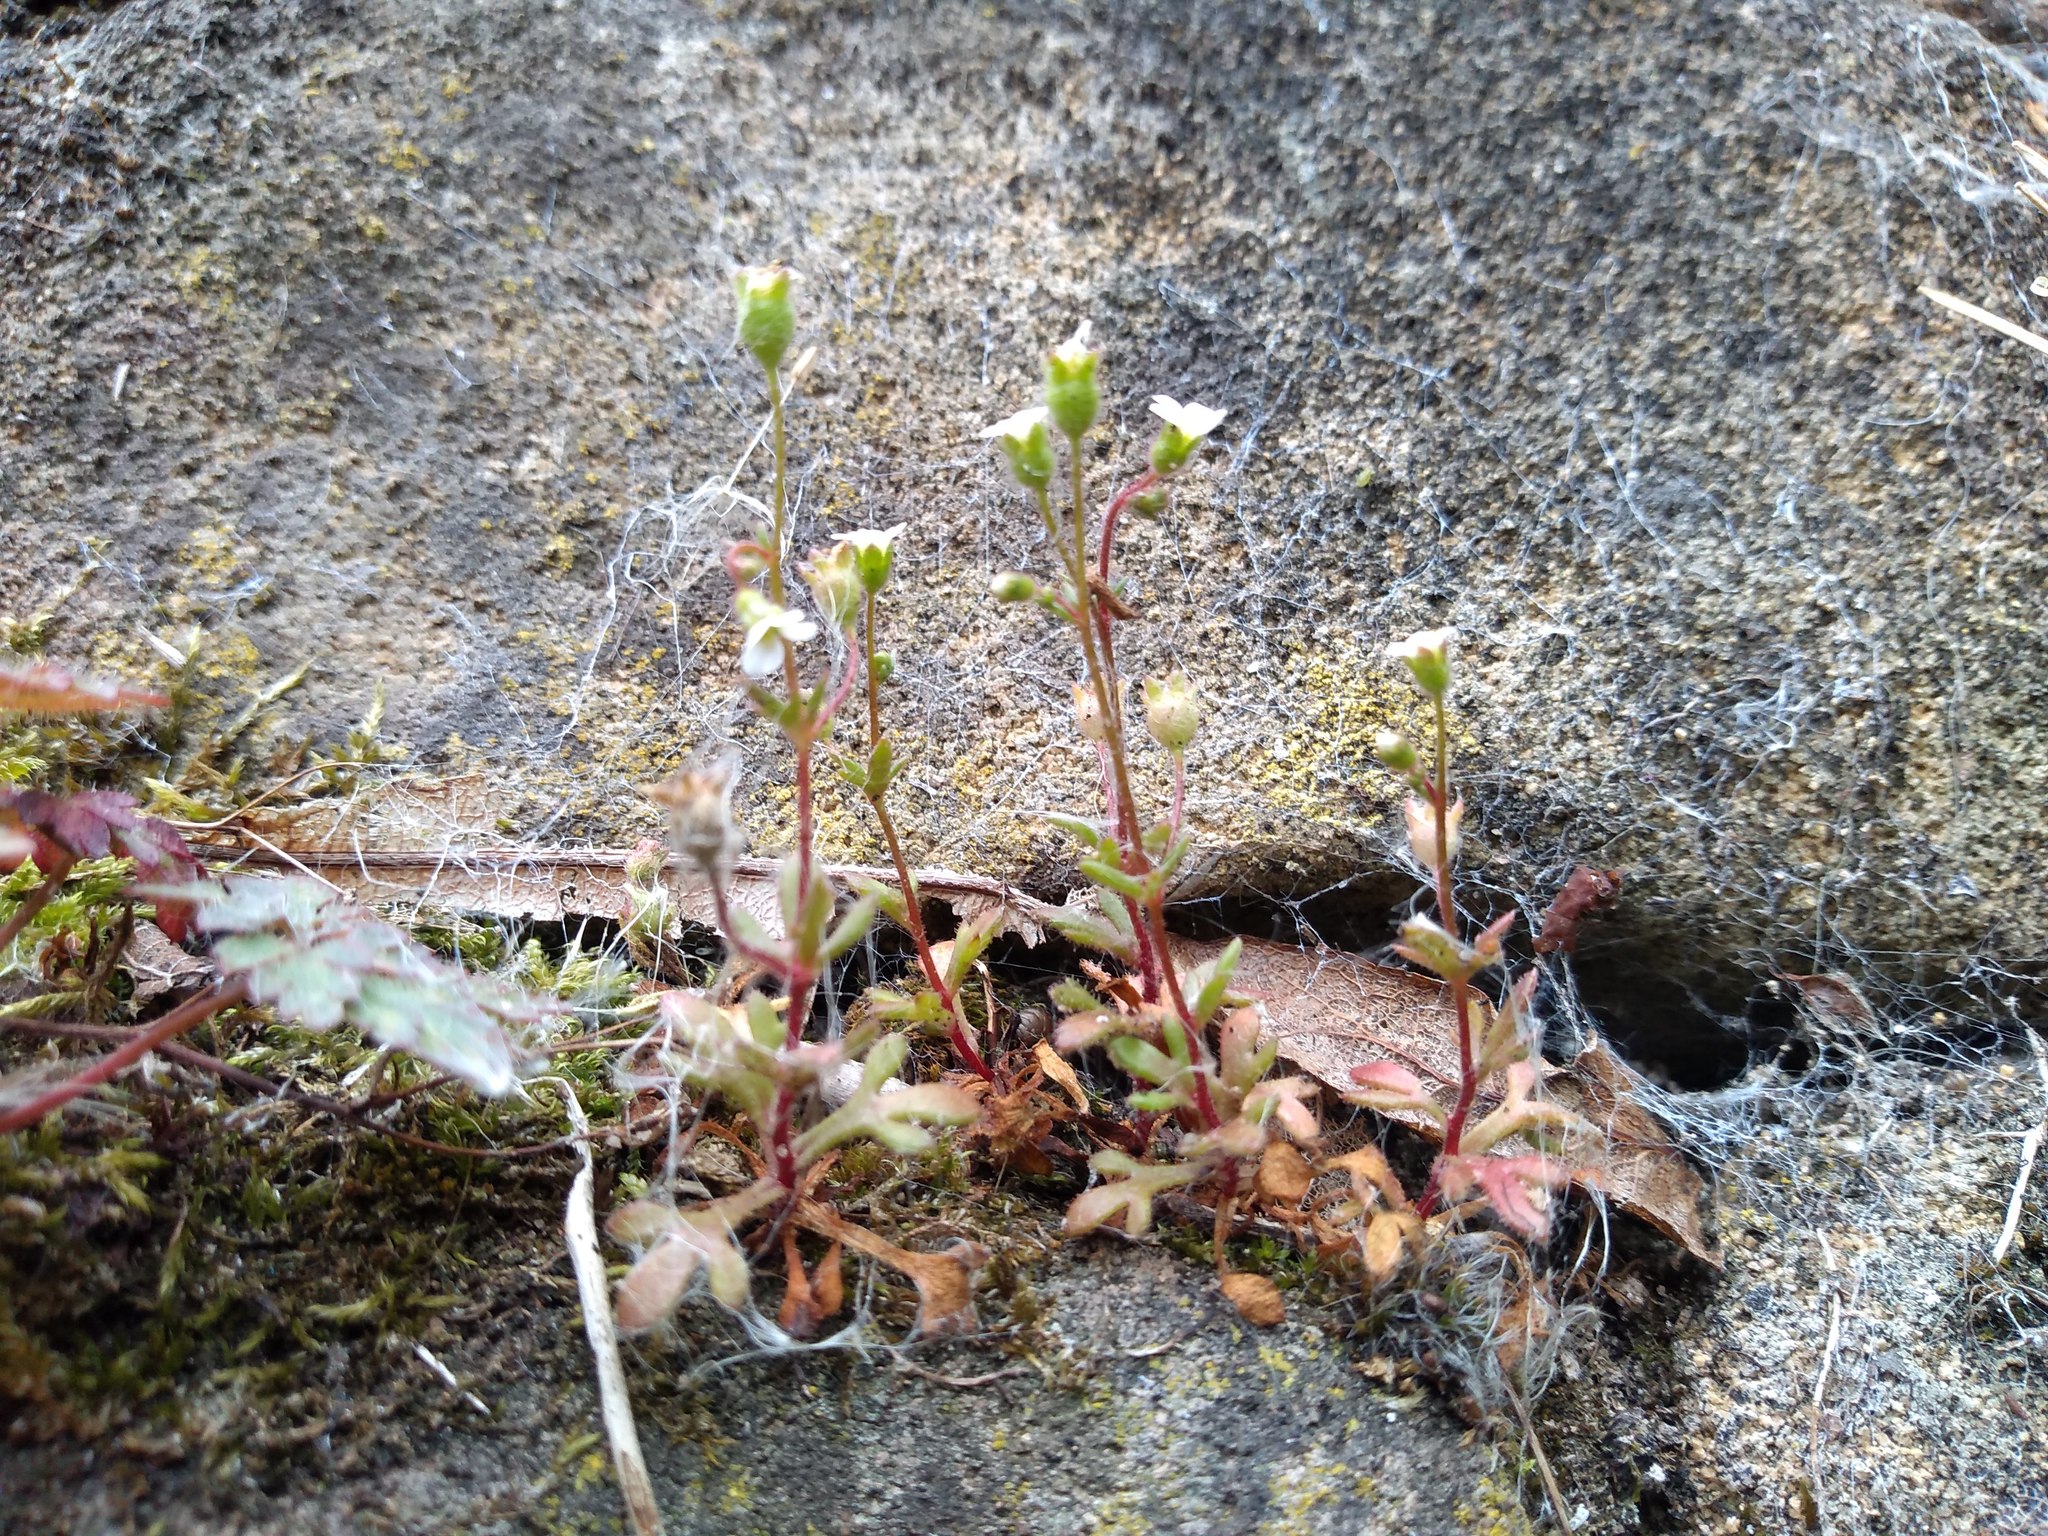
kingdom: Plantae
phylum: Tracheophyta
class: Magnoliopsida
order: Saxifragales
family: Saxifragaceae
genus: Saxifraga
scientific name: Saxifraga tridactylites
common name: Rue-leaved saxifrage
